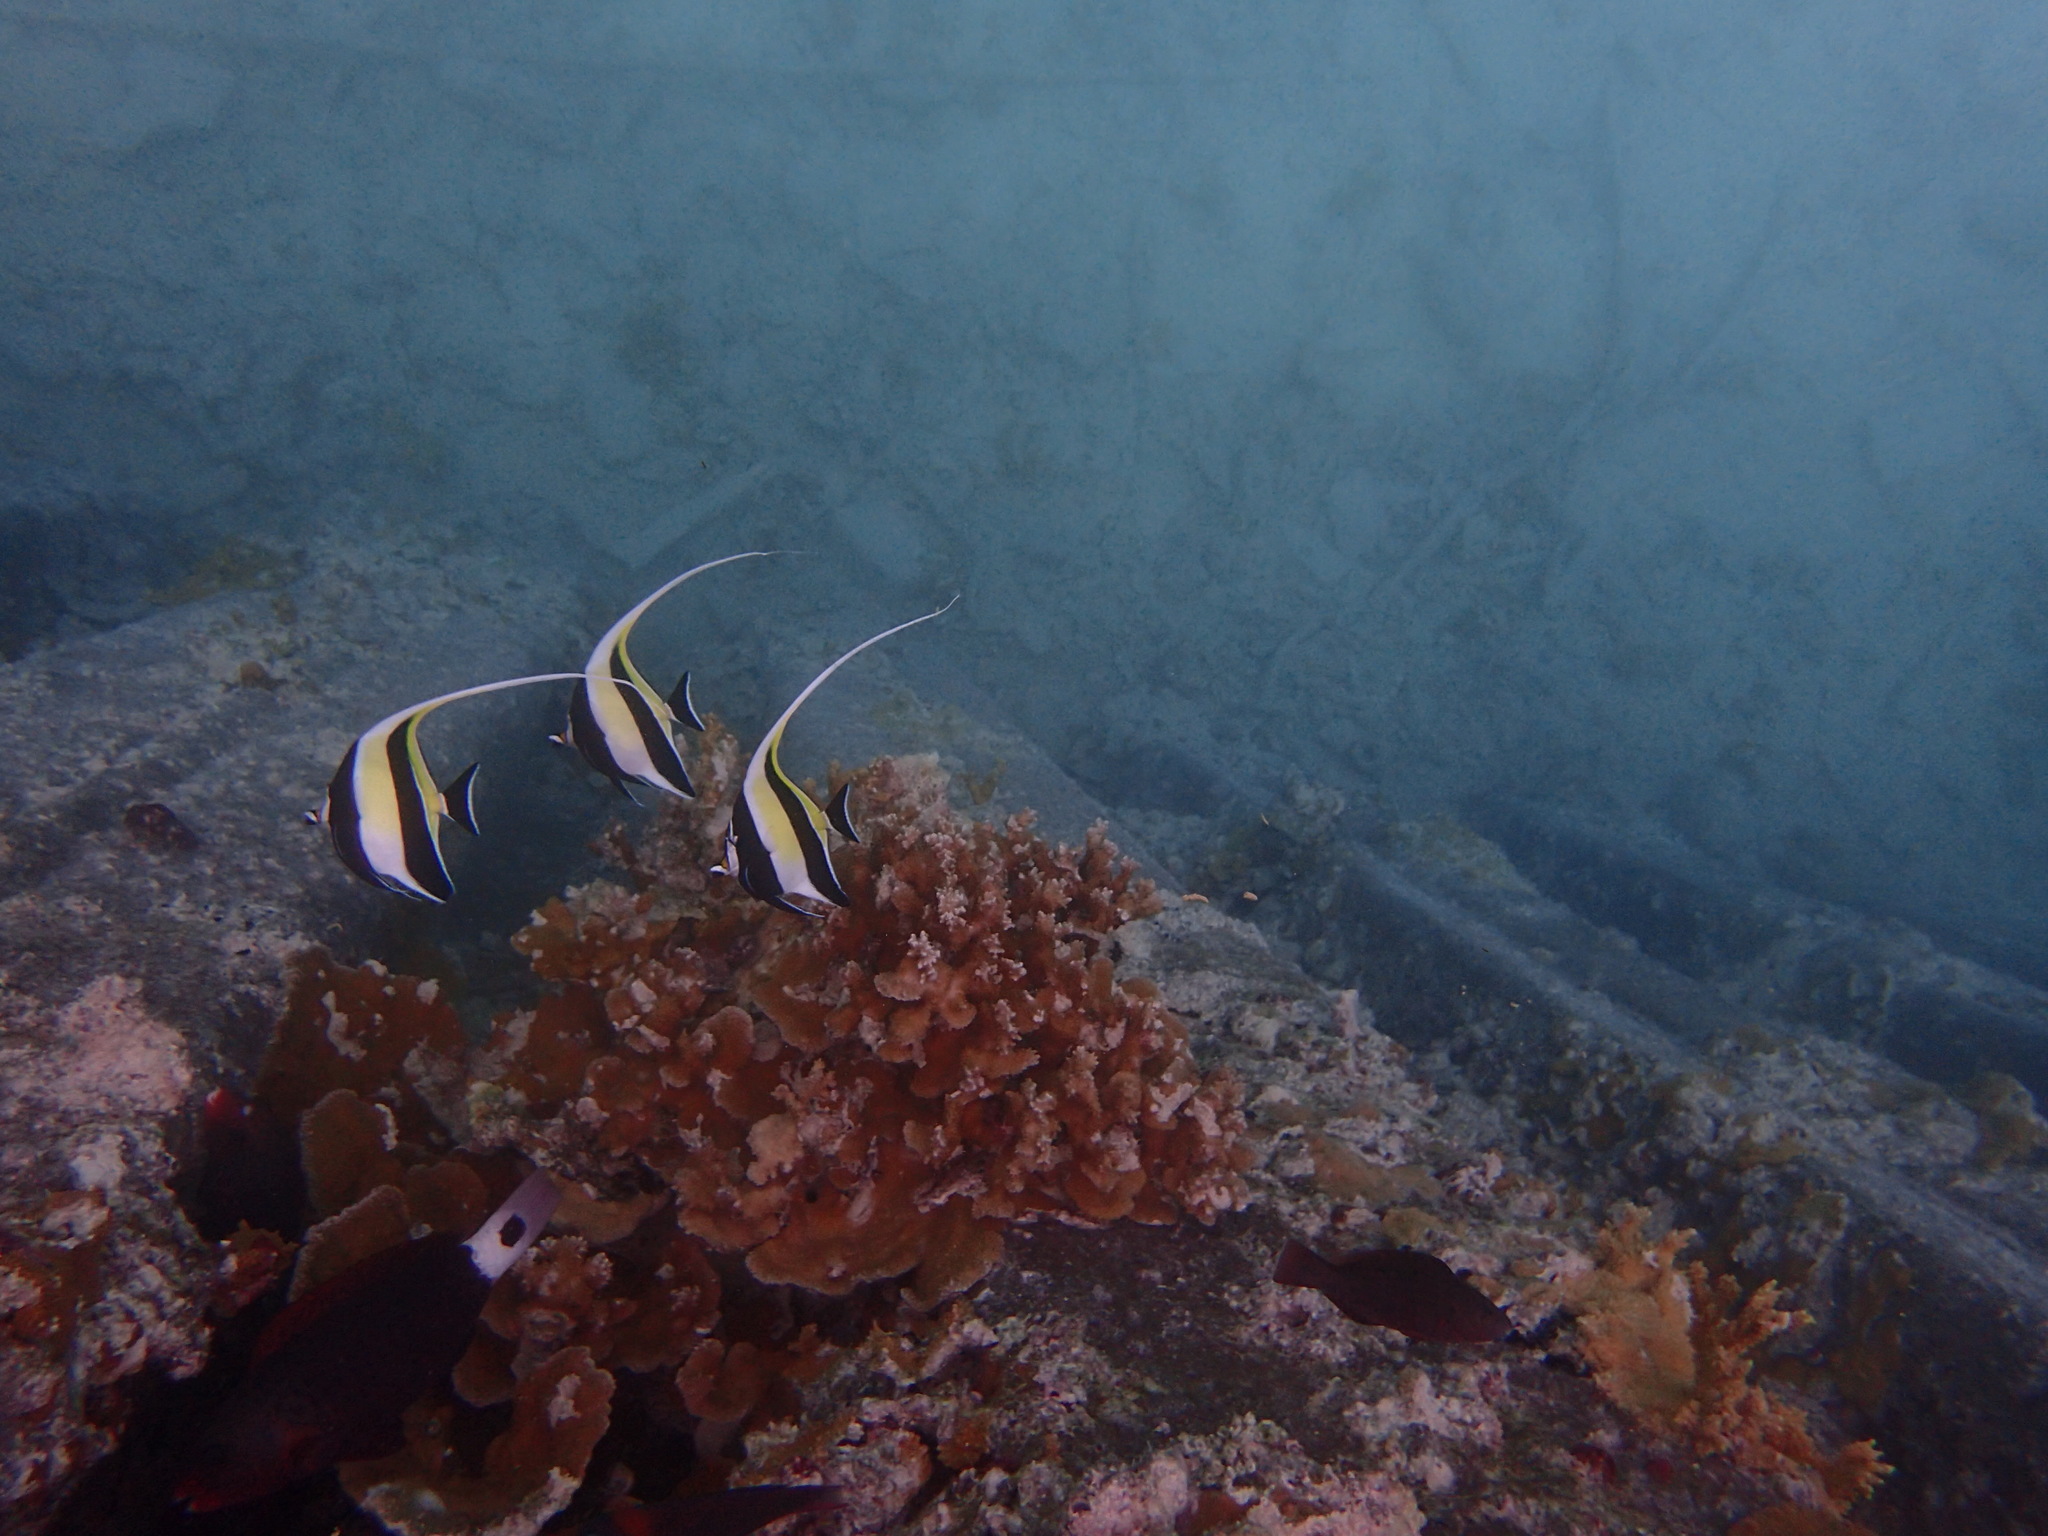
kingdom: Animalia
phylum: Chordata
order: Perciformes
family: Zanclidae
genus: Zanclus
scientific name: Zanclus cornutus
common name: Moorish idol
